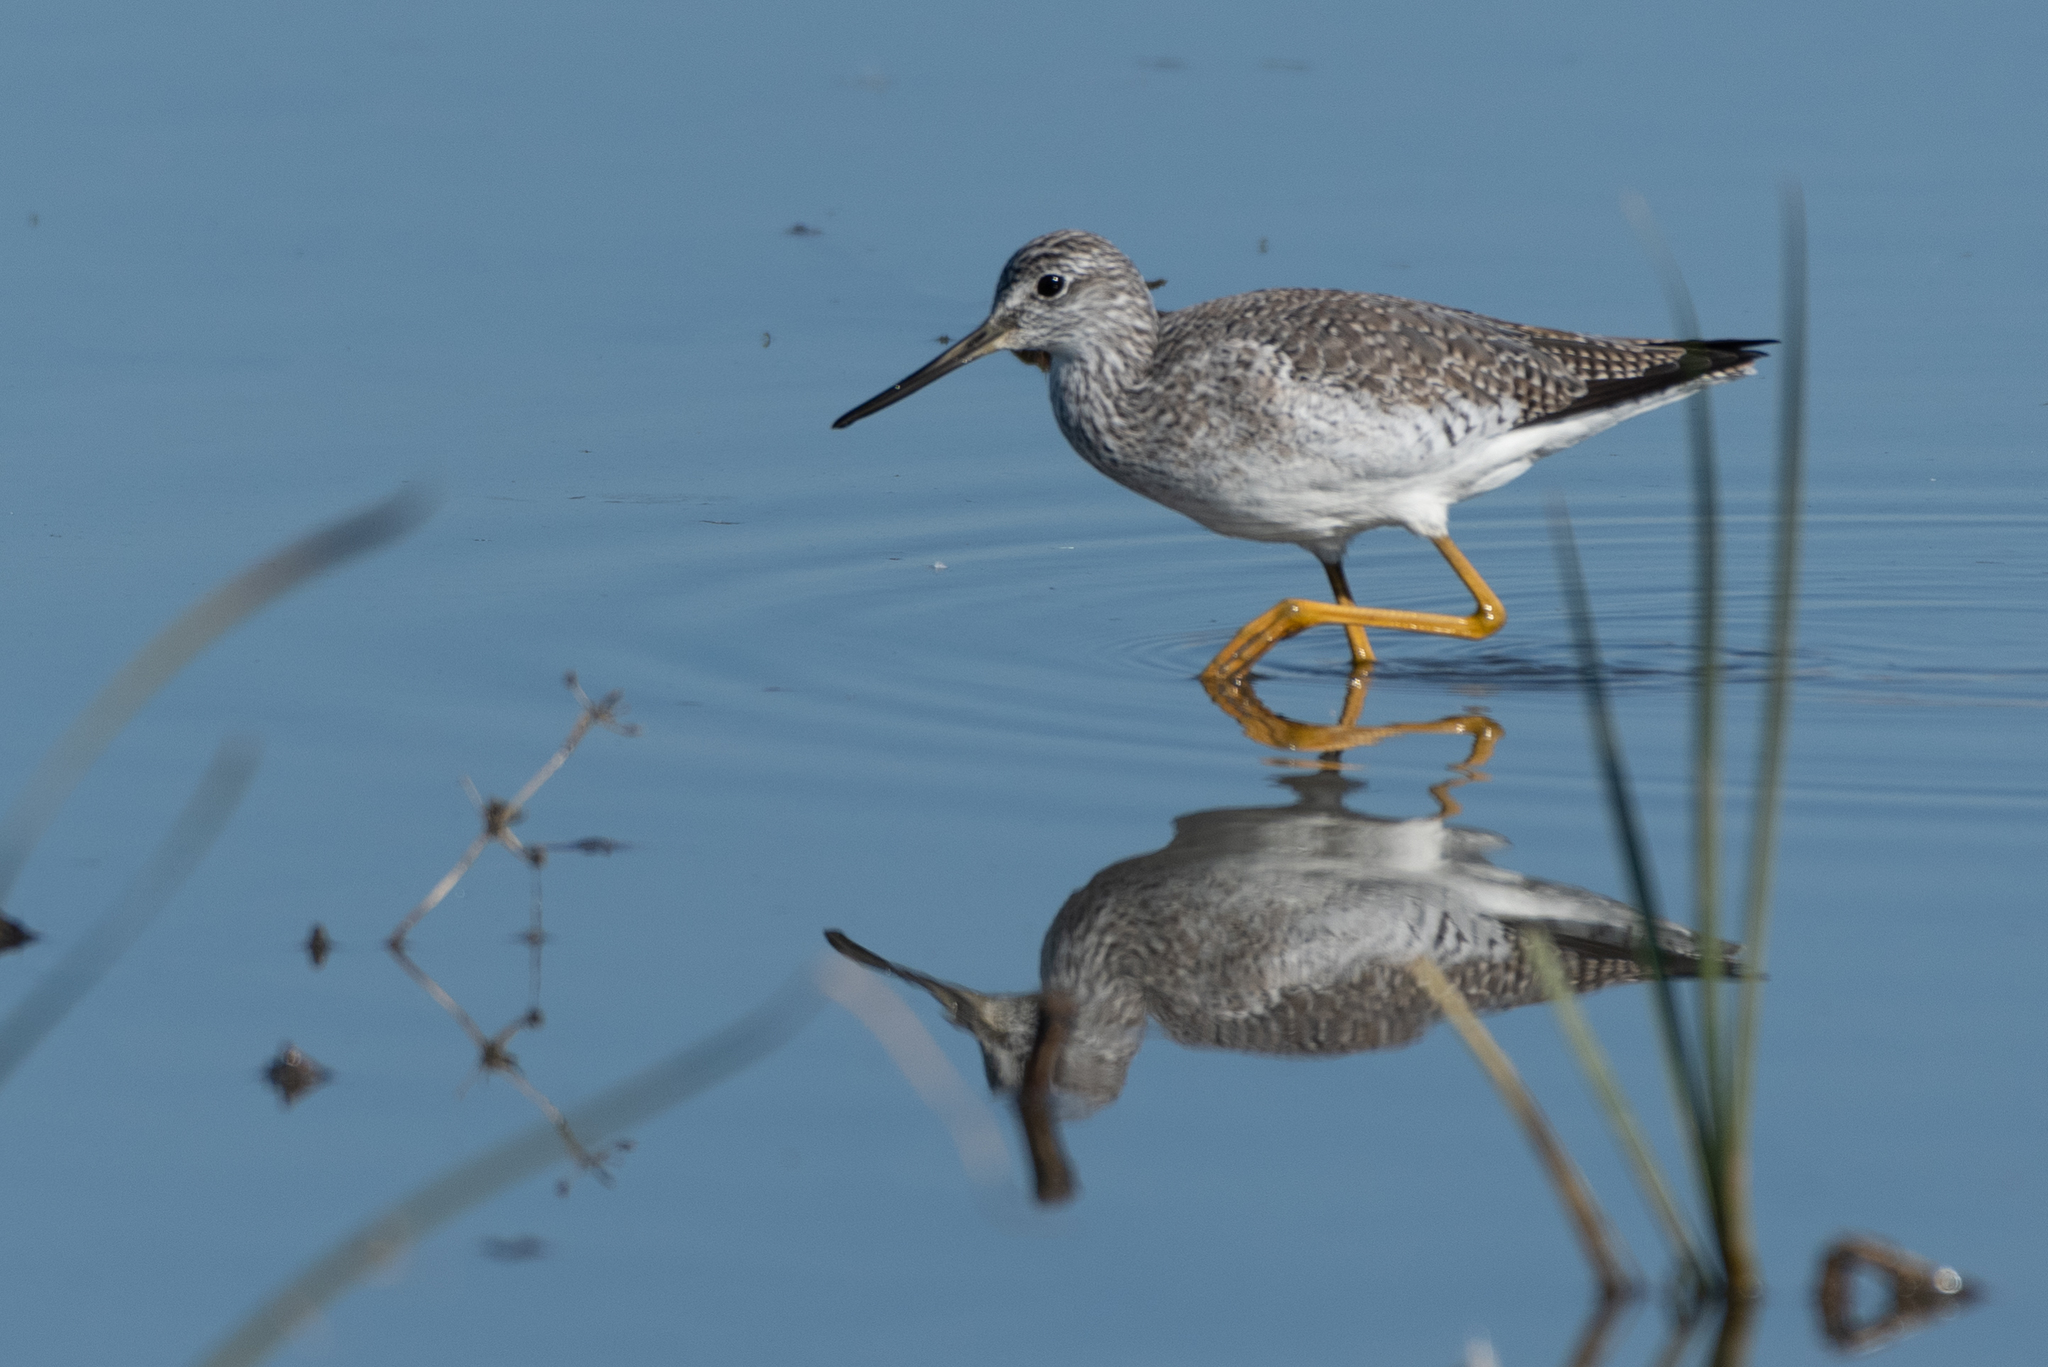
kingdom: Animalia
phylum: Chordata
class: Aves
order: Charadriiformes
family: Scolopacidae
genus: Tringa
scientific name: Tringa melanoleuca
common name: Greater yellowlegs
